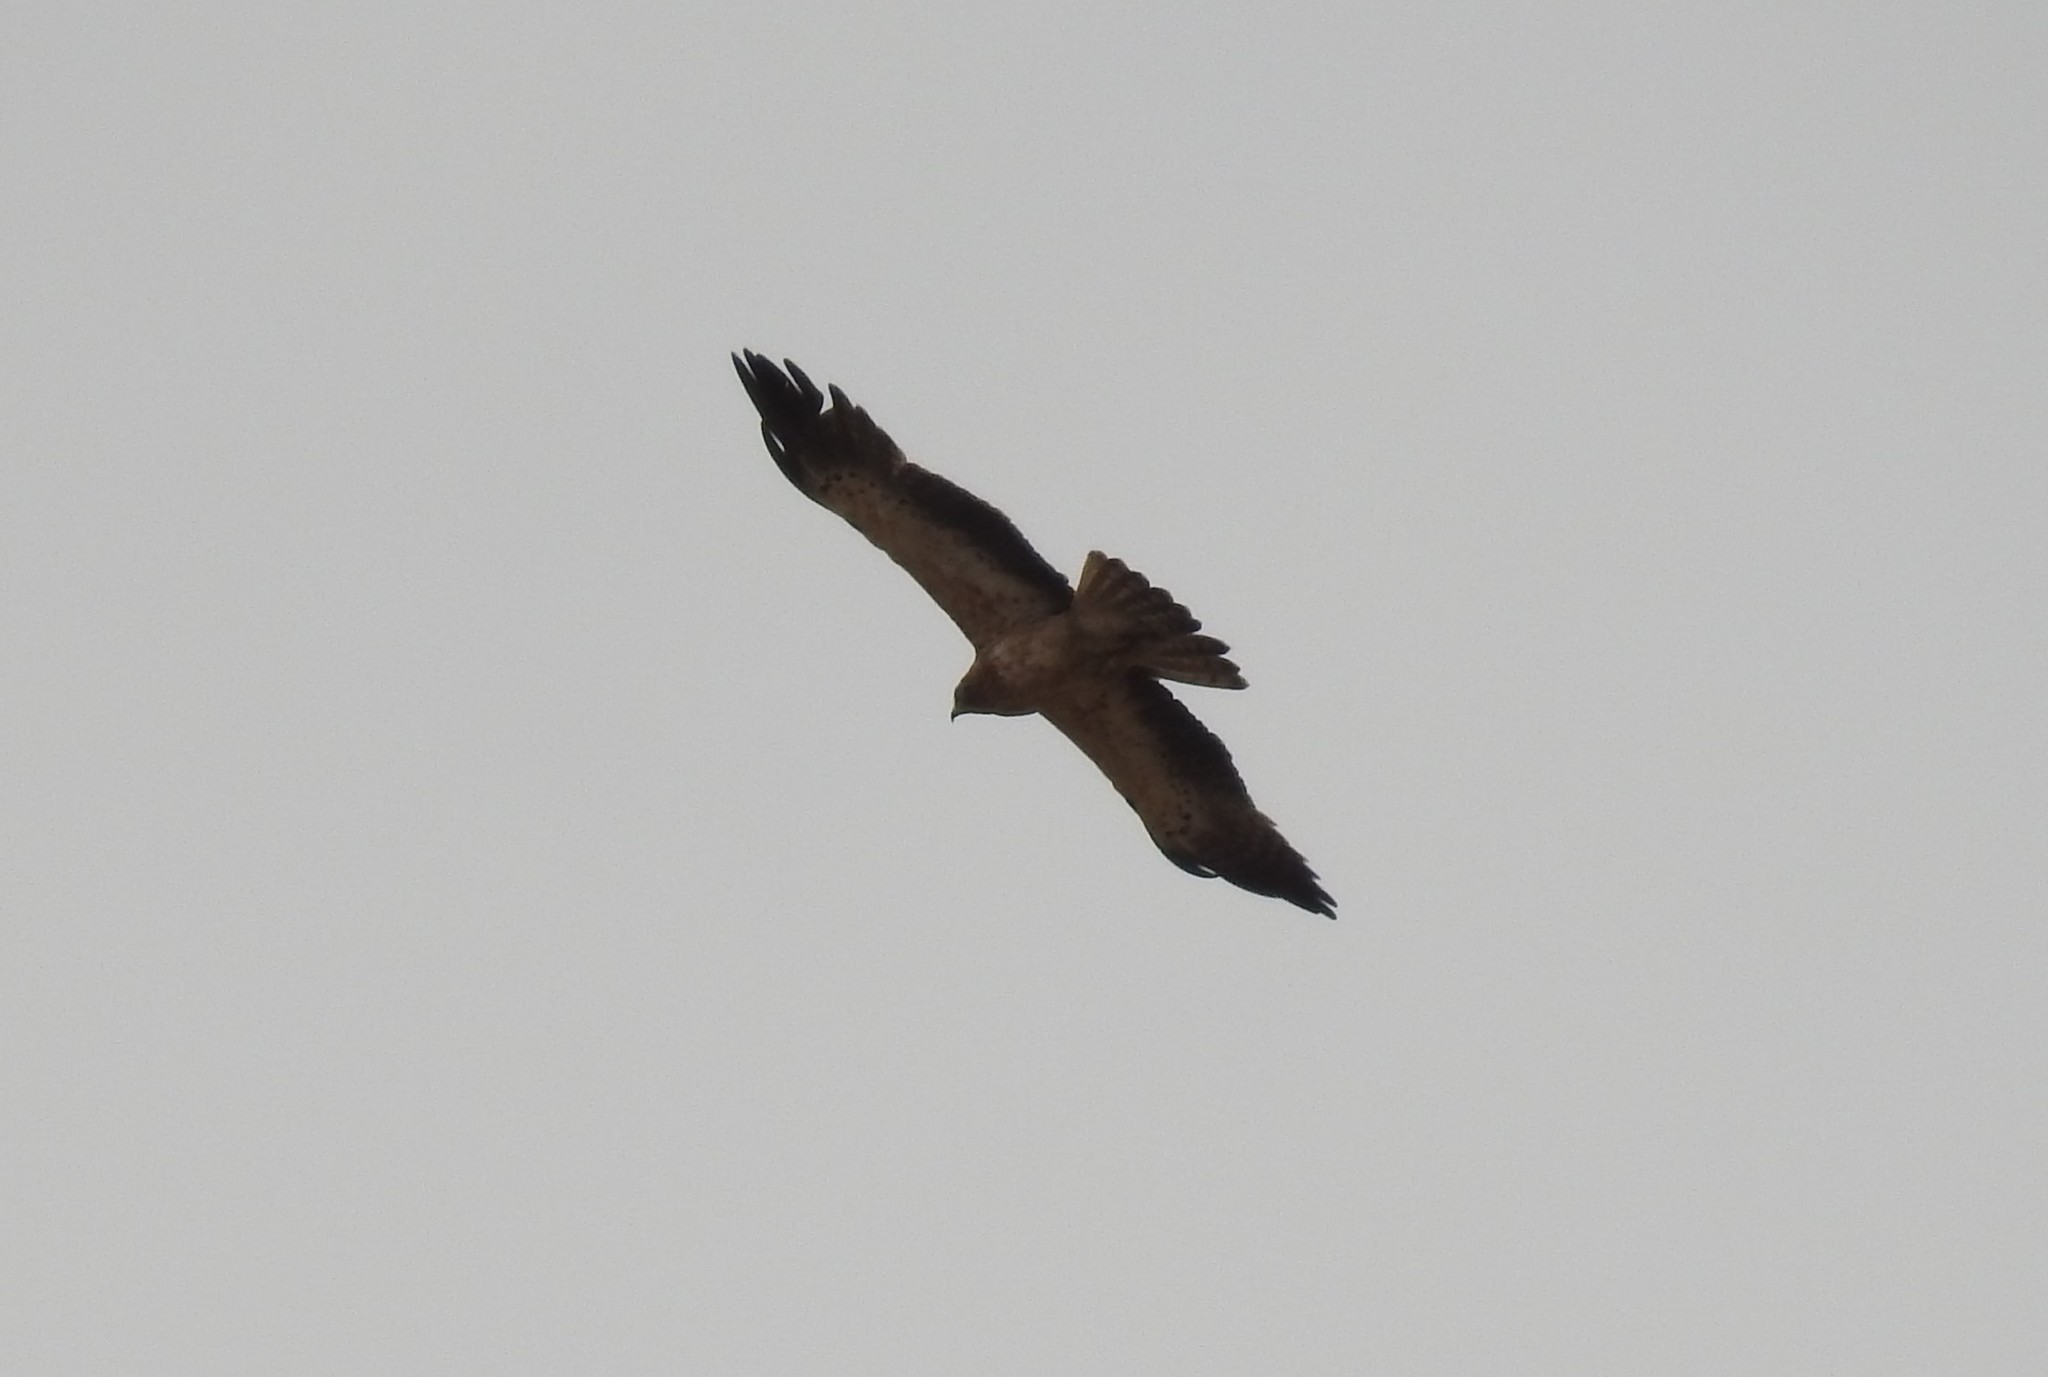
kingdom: Animalia
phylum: Chordata
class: Aves
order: Accipitriformes
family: Accipitridae
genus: Hieraaetus
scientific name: Hieraaetus pennatus
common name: Booted eagle
